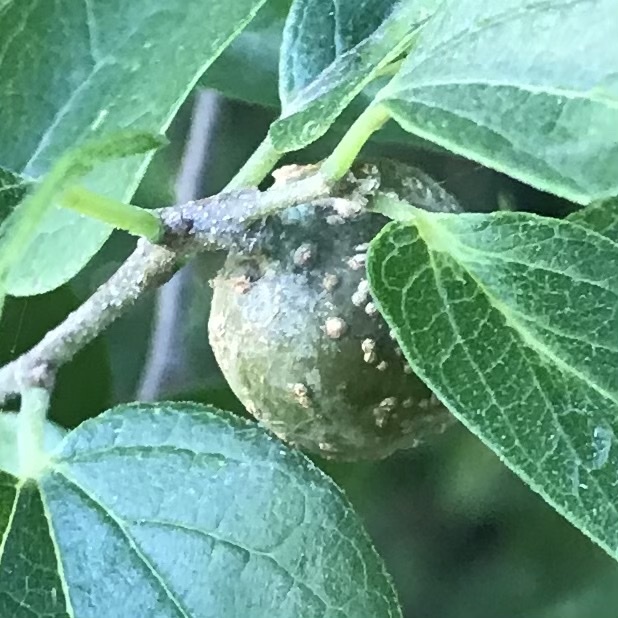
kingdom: Animalia
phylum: Arthropoda
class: Insecta
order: Hemiptera
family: Aphalaridae
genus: Pachypsylla
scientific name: Pachypsylla venusta
